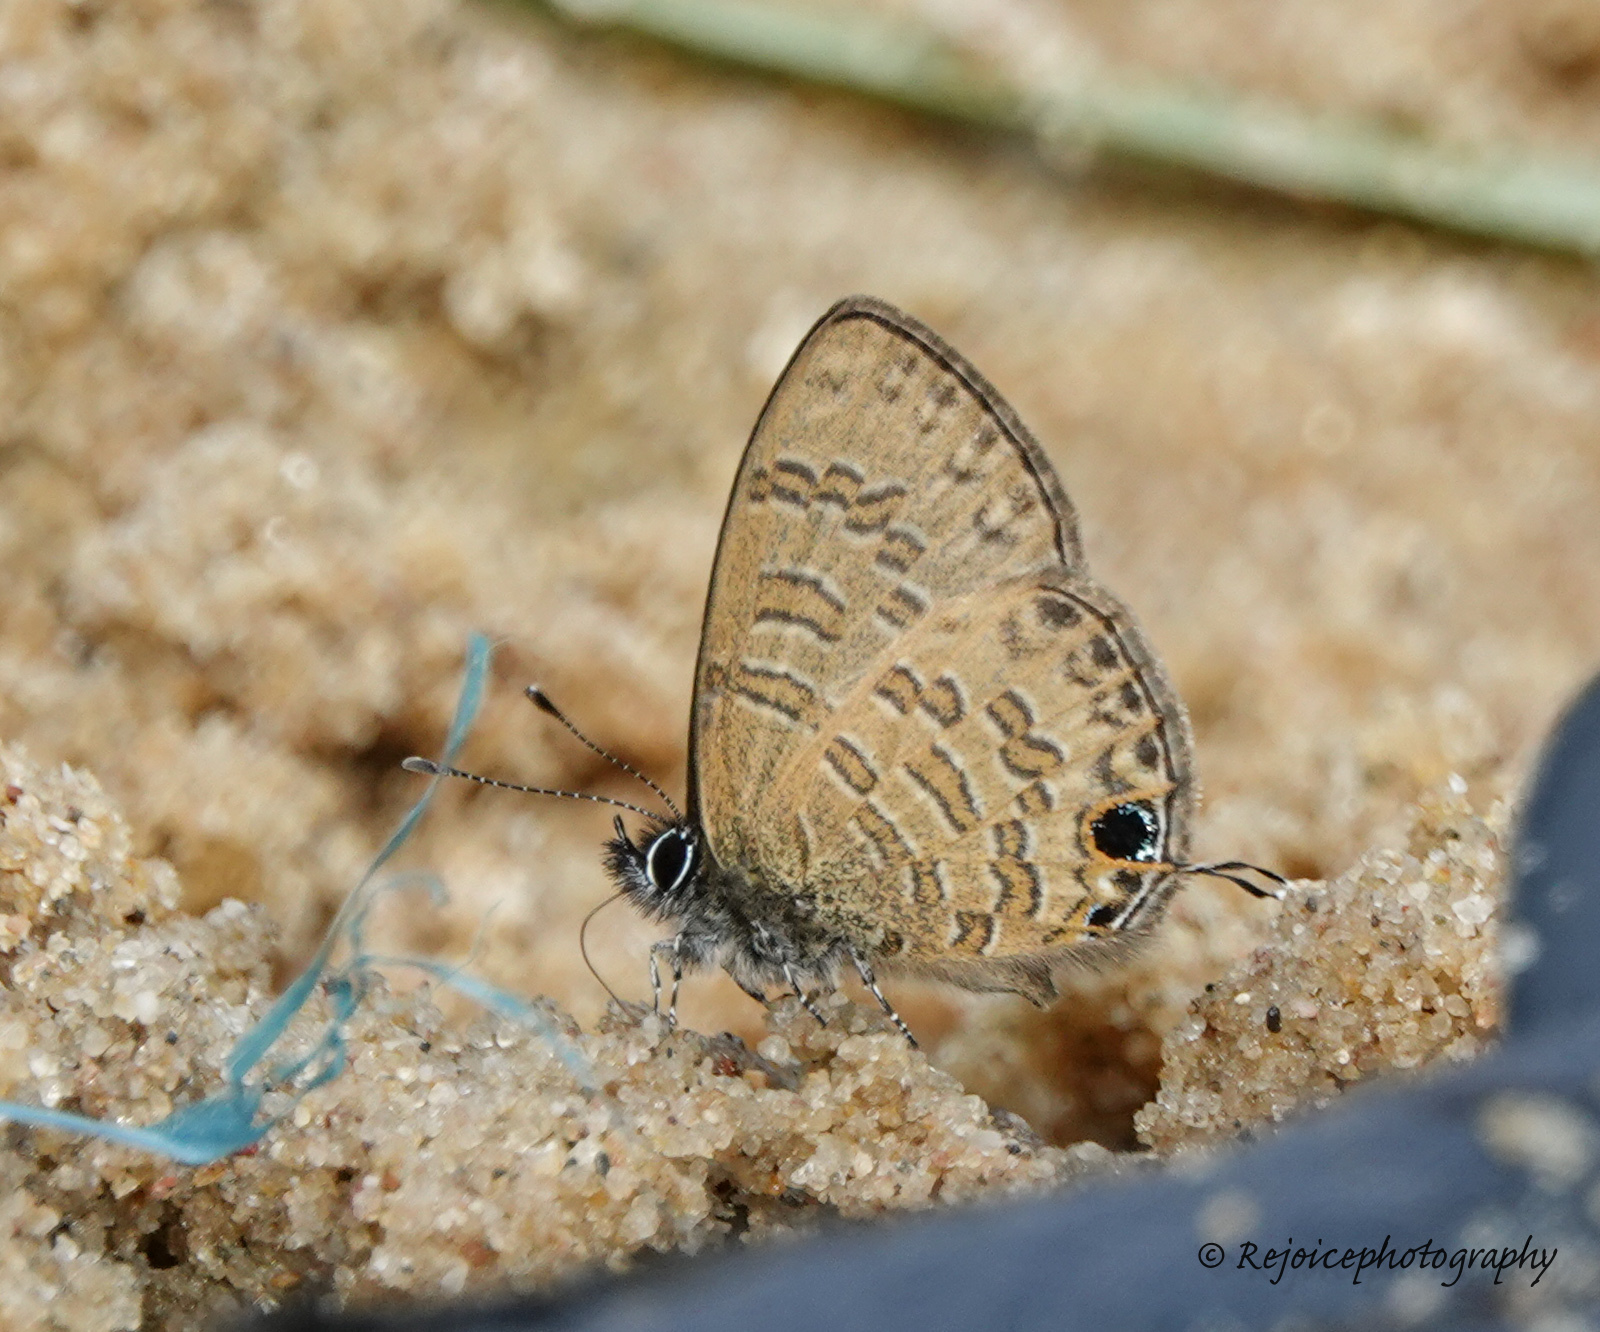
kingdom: Animalia
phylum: Arthropoda
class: Insecta
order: Lepidoptera
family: Lycaenidae
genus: Prosotas
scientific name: Prosotas nora
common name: Common line blue
